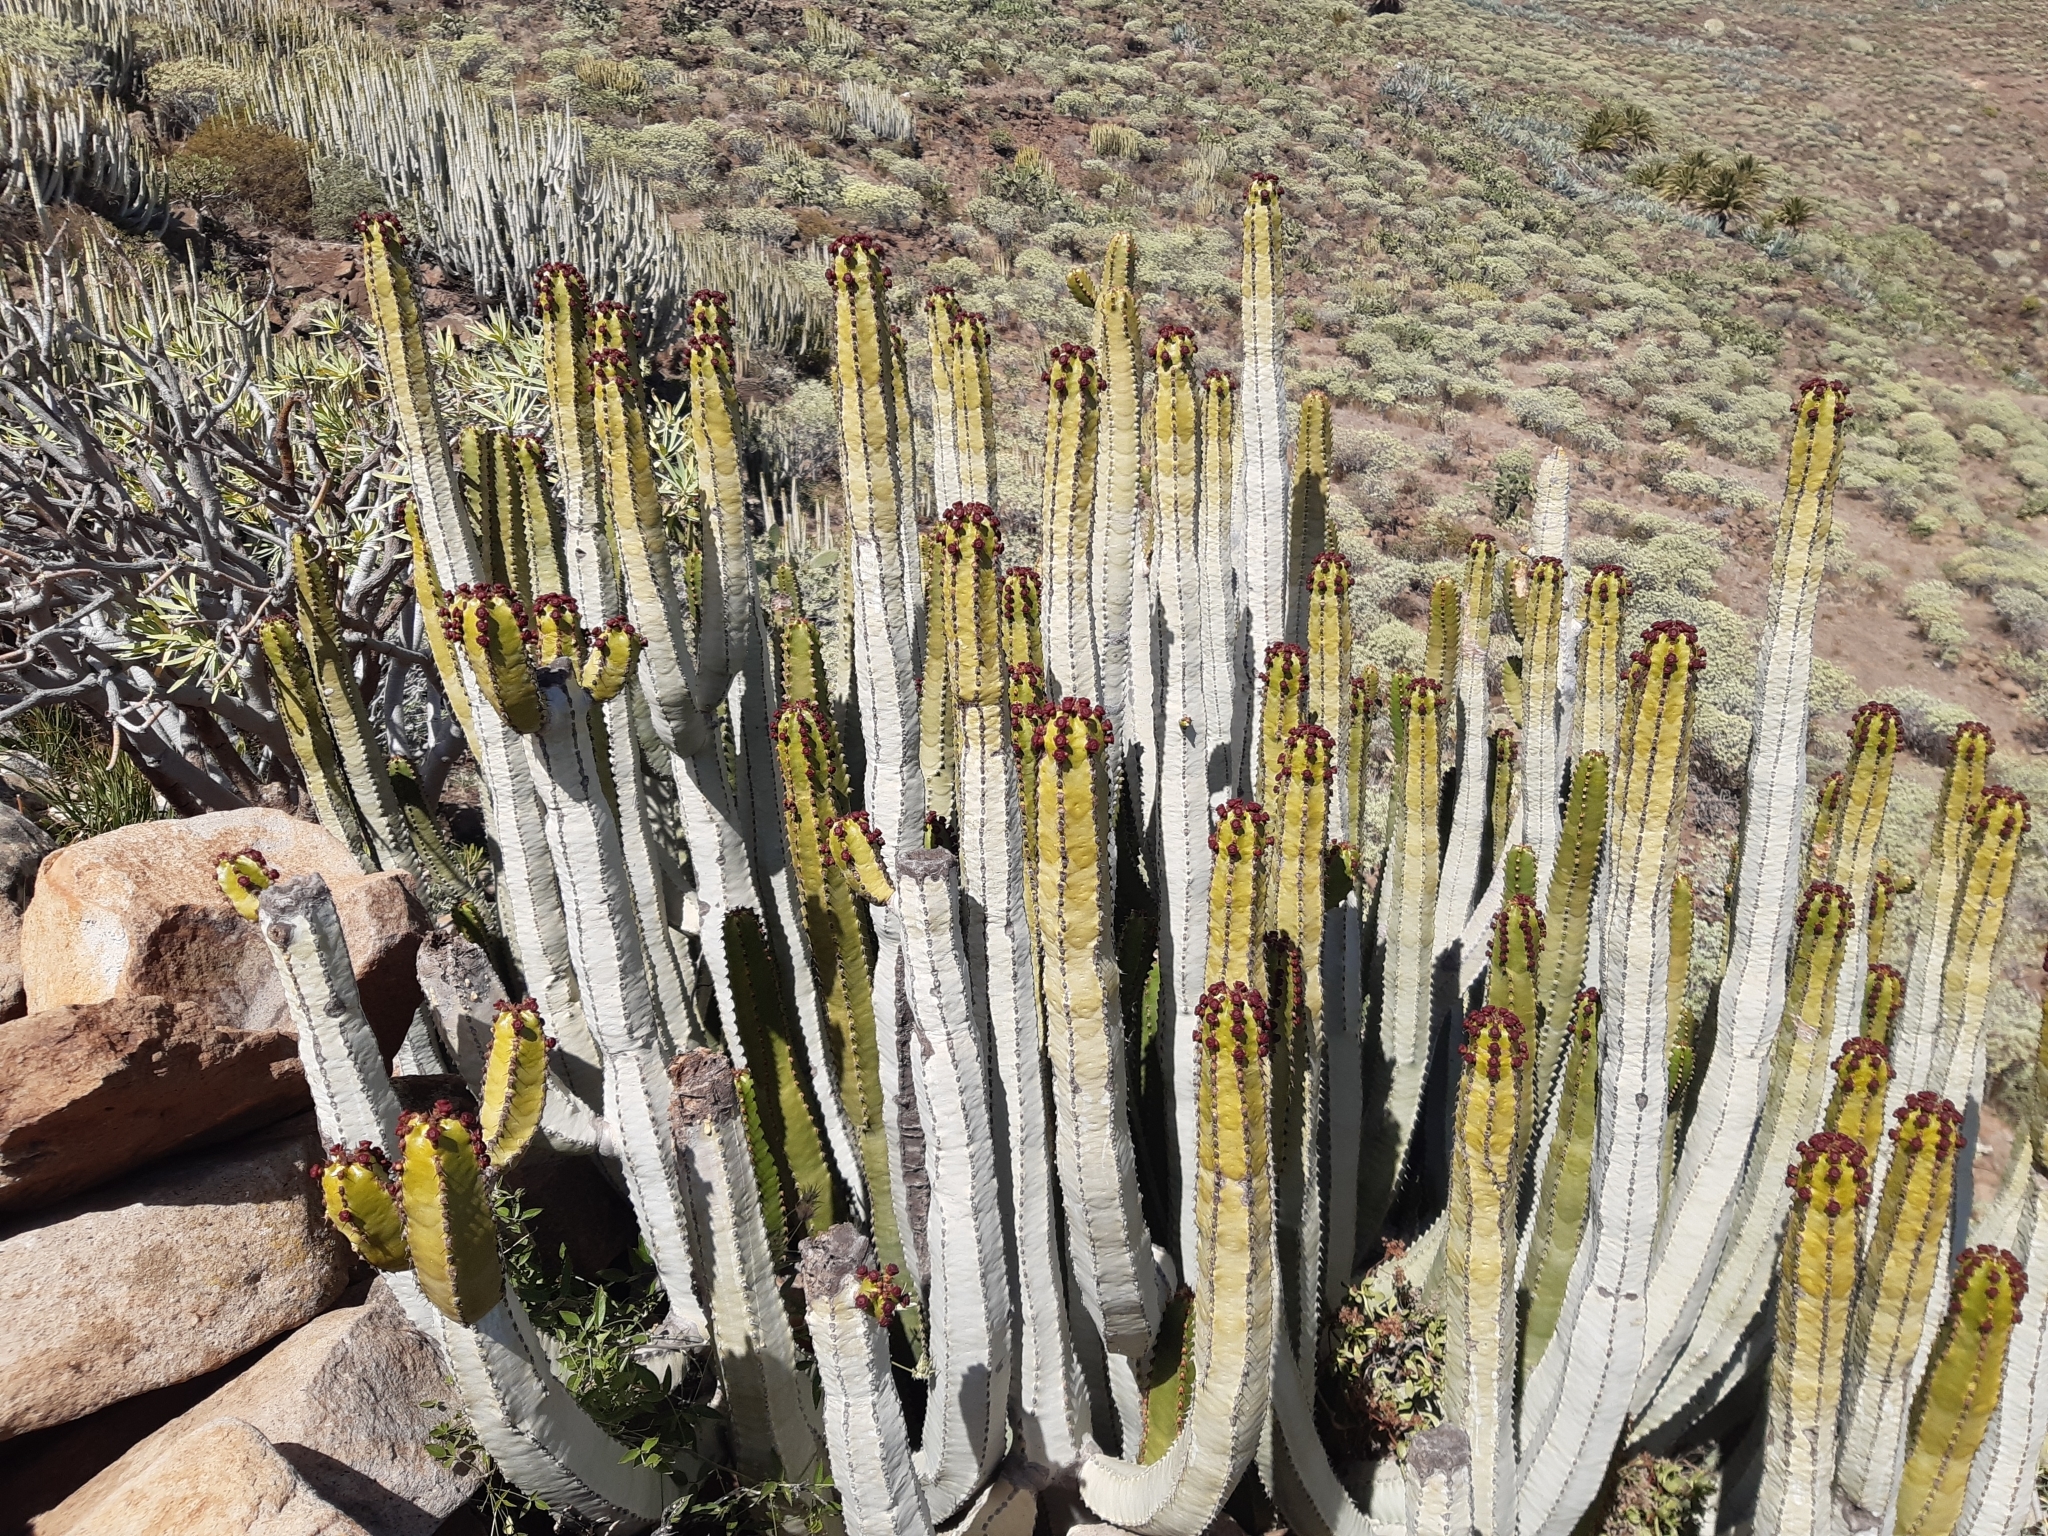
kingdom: Plantae
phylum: Tracheophyta
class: Magnoliopsida
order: Malpighiales
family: Euphorbiaceae
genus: Euphorbia
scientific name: Euphorbia canariensis
